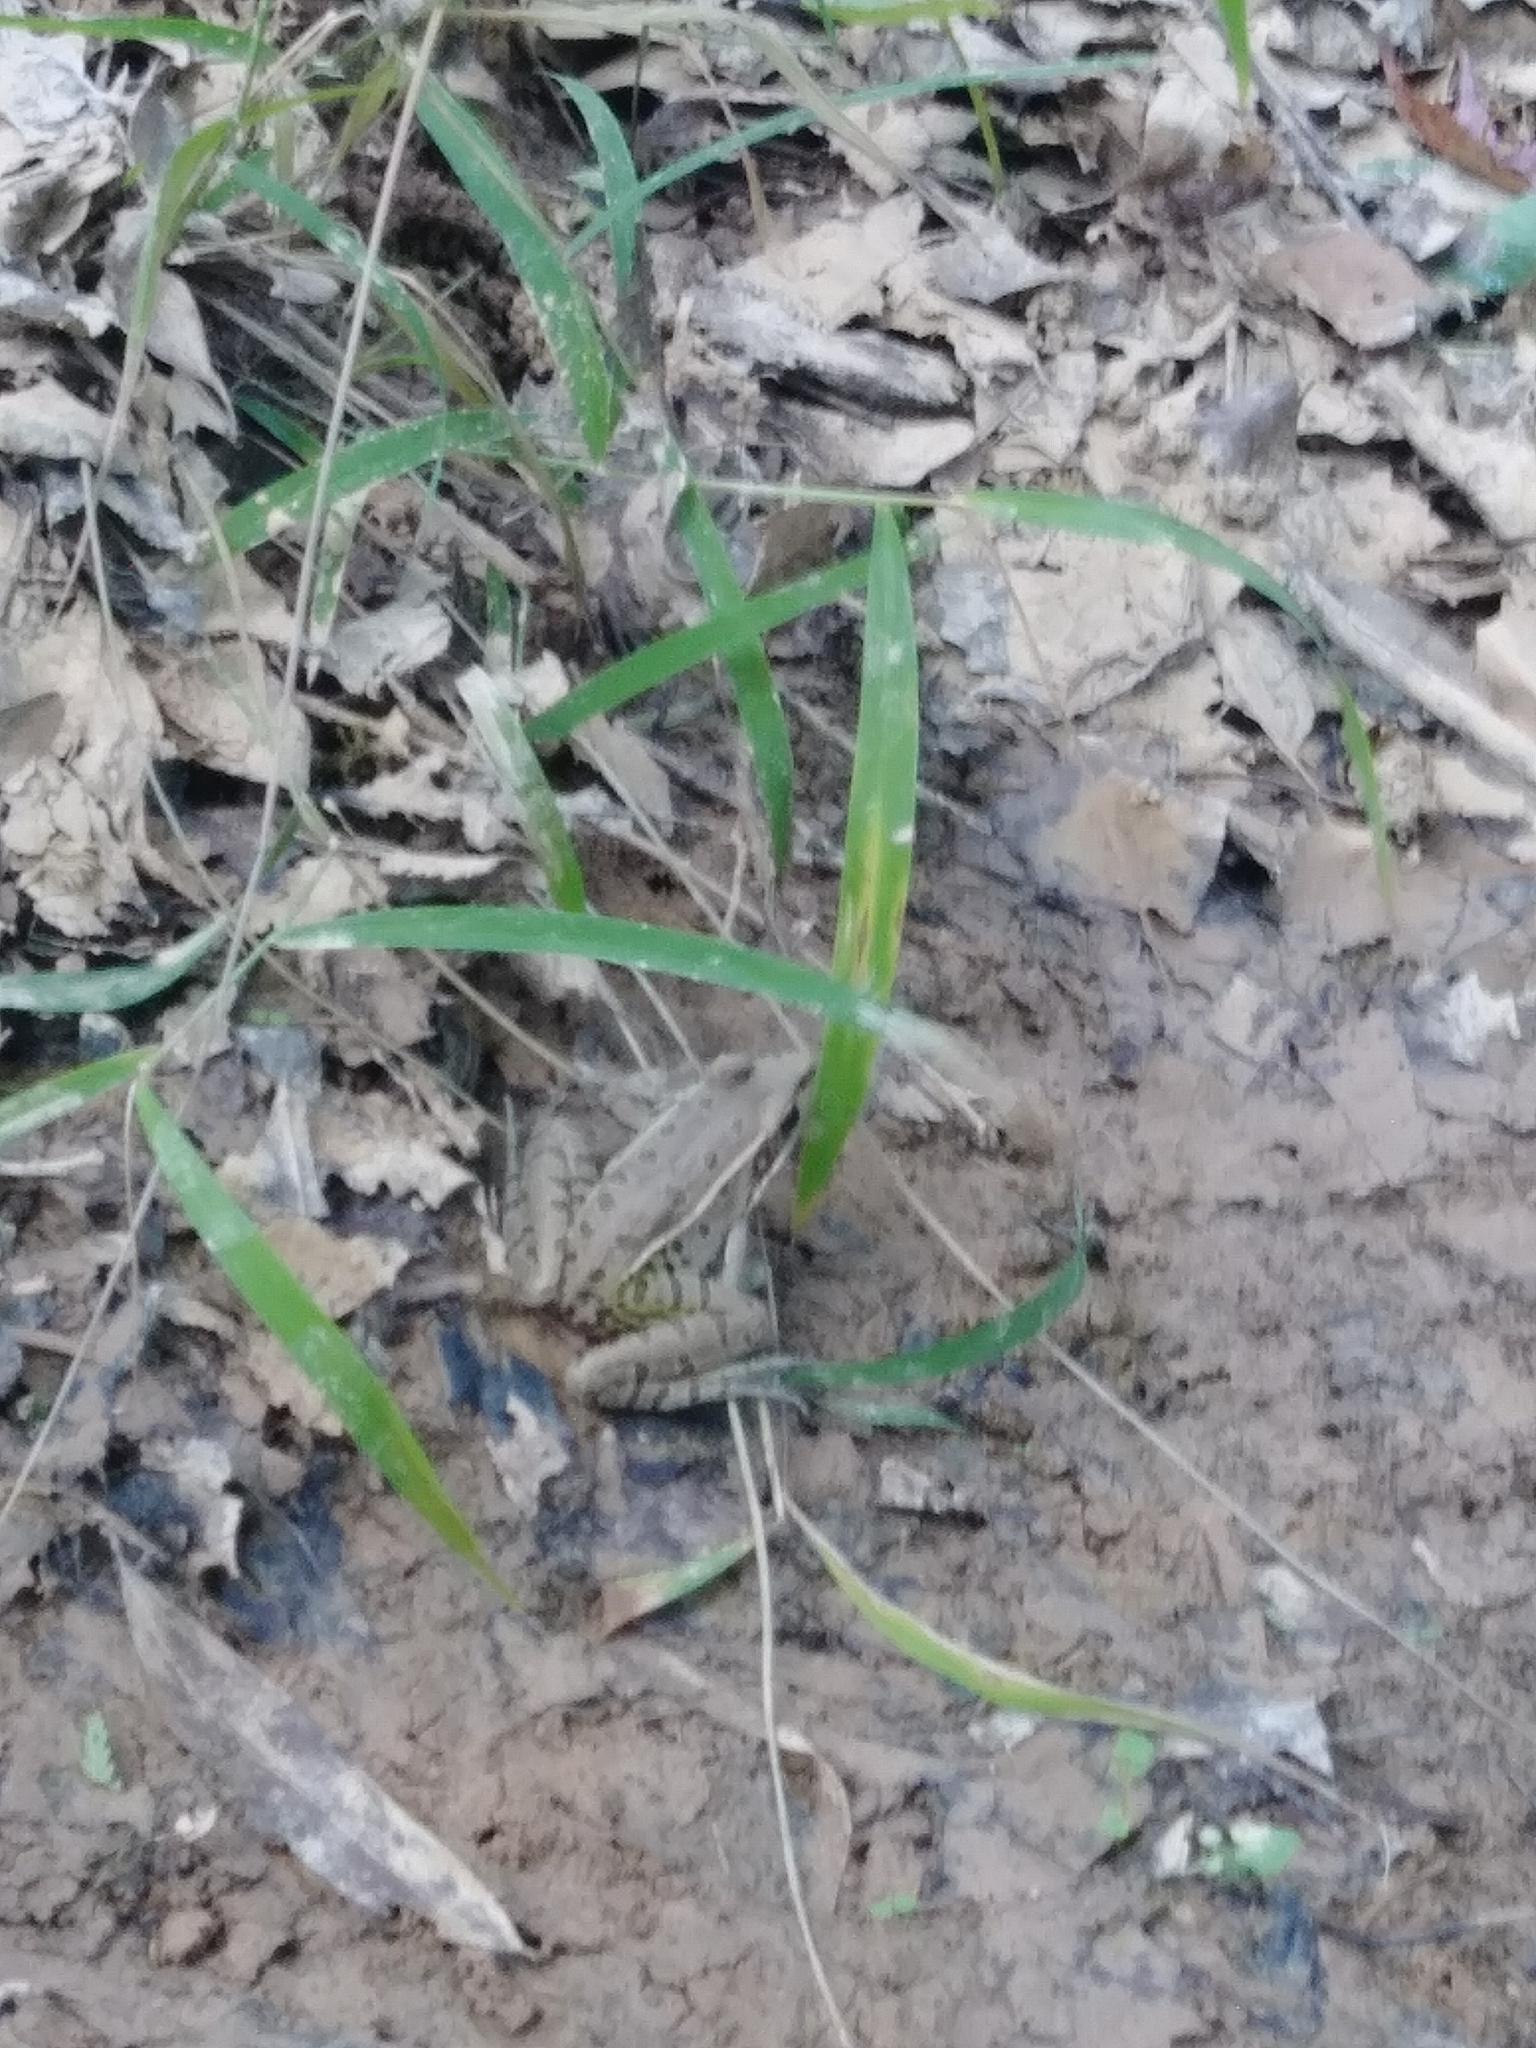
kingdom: Animalia
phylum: Chordata
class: Amphibia
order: Anura
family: Ranidae
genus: Lithobates
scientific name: Lithobates sphenocephalus
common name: Southern leopard frog
